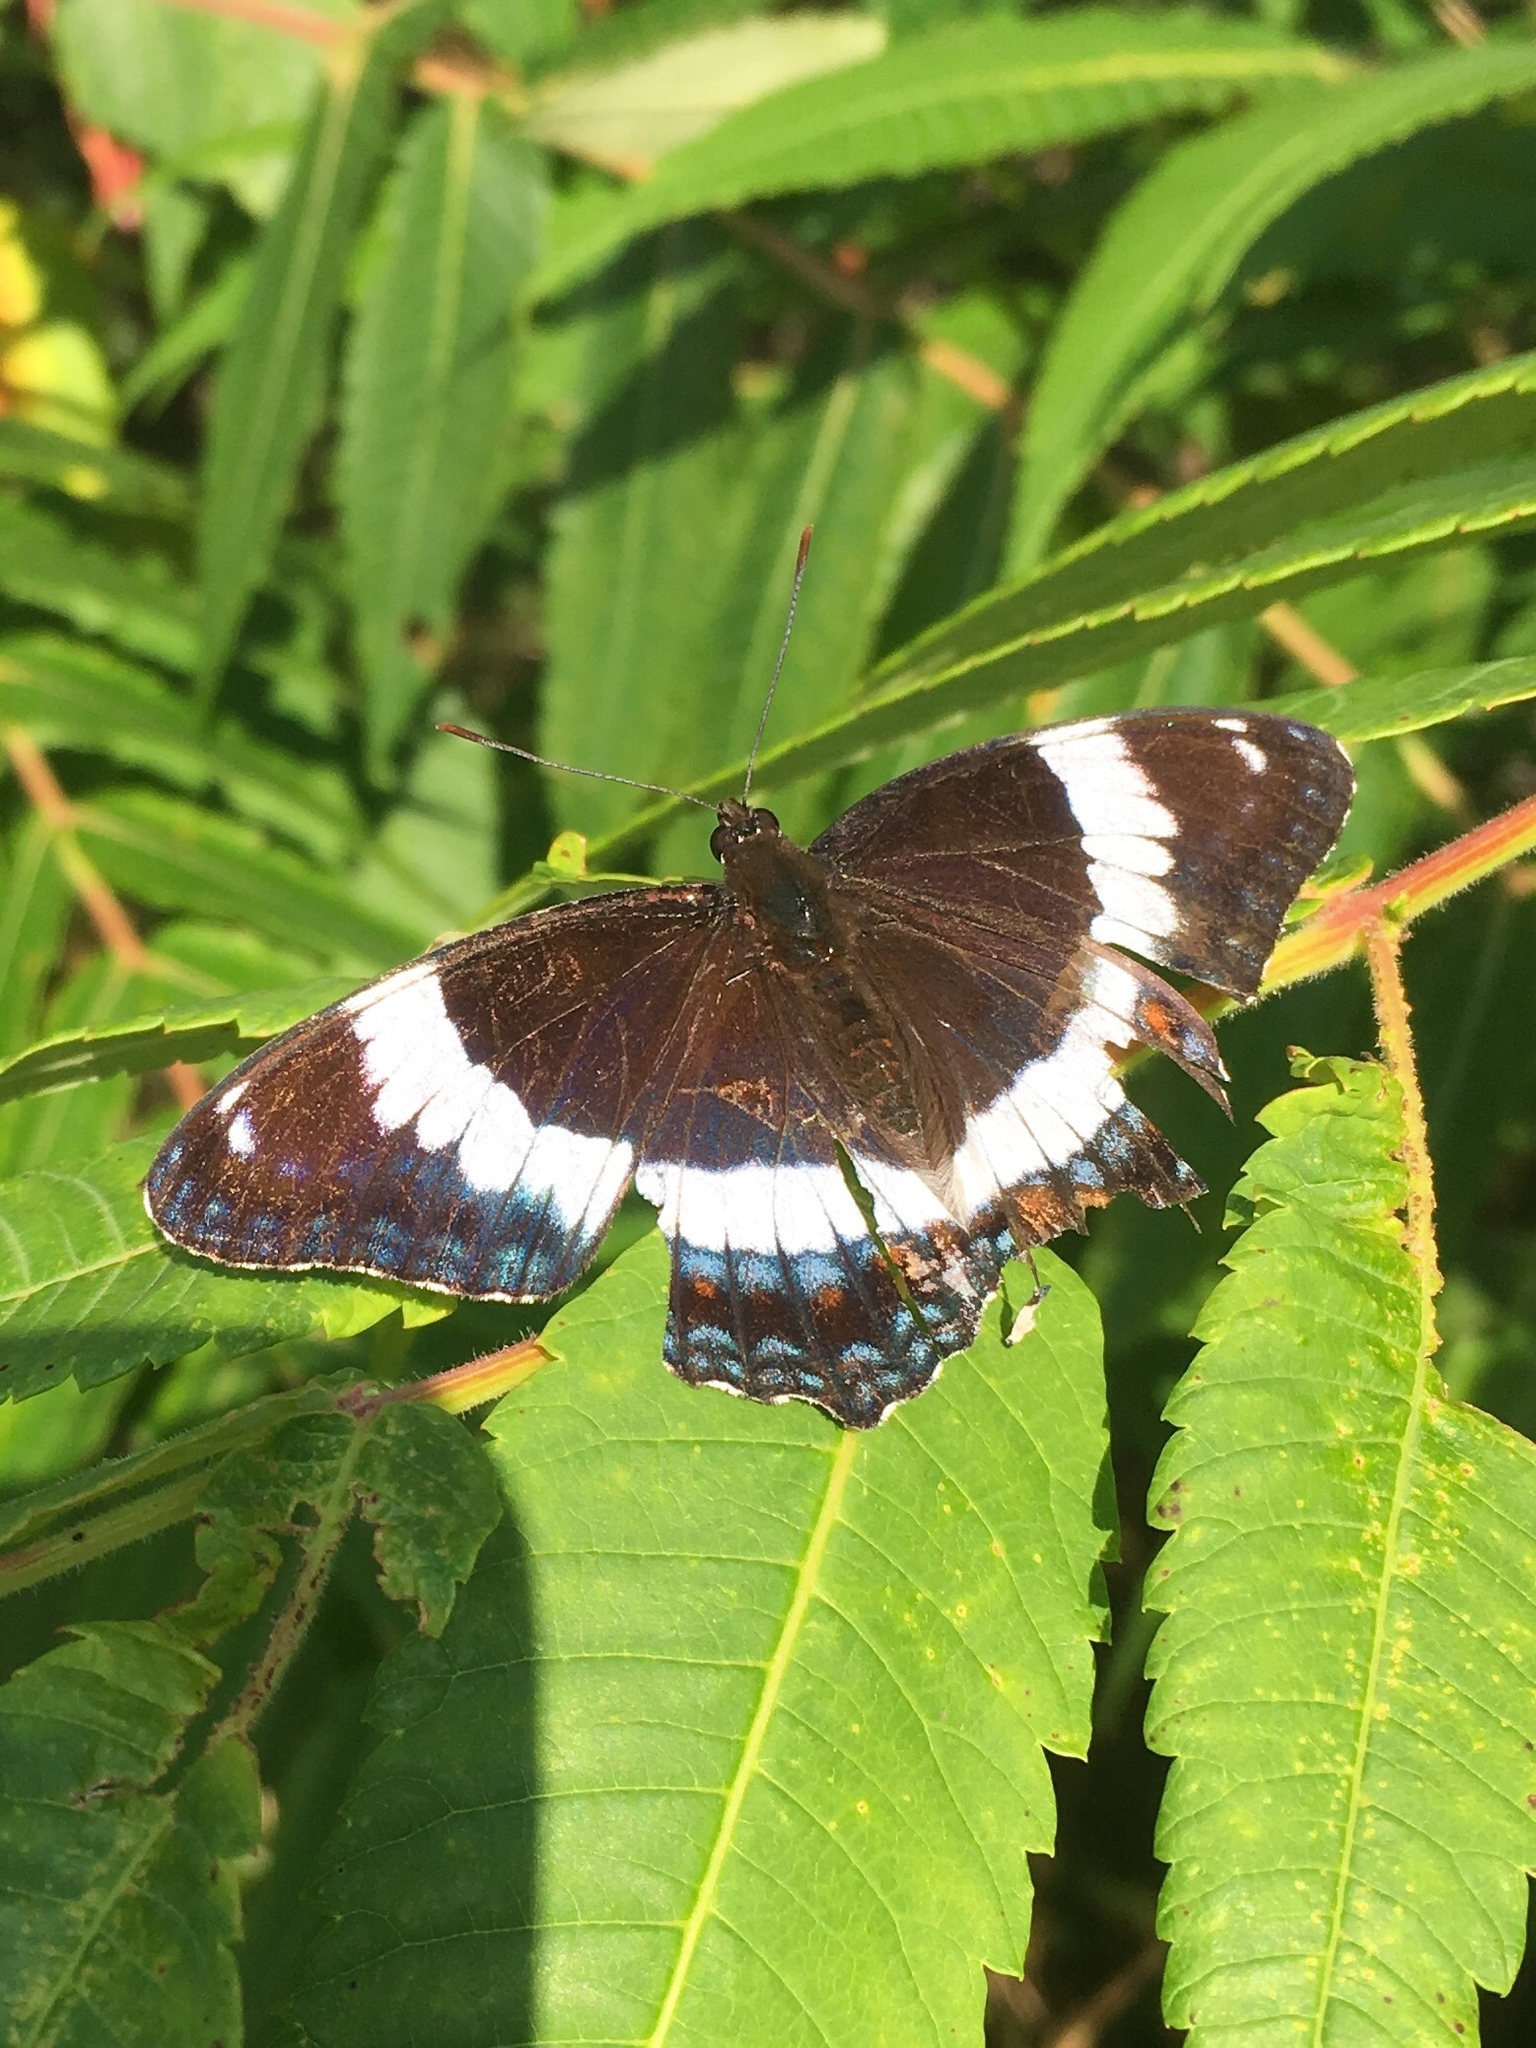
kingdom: Animalia
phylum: Arthropoda
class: Insecta
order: Lepidoptera
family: Nymphalidae
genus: Limenitis
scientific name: Limenitis arthemis
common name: Red-spotted admiral
